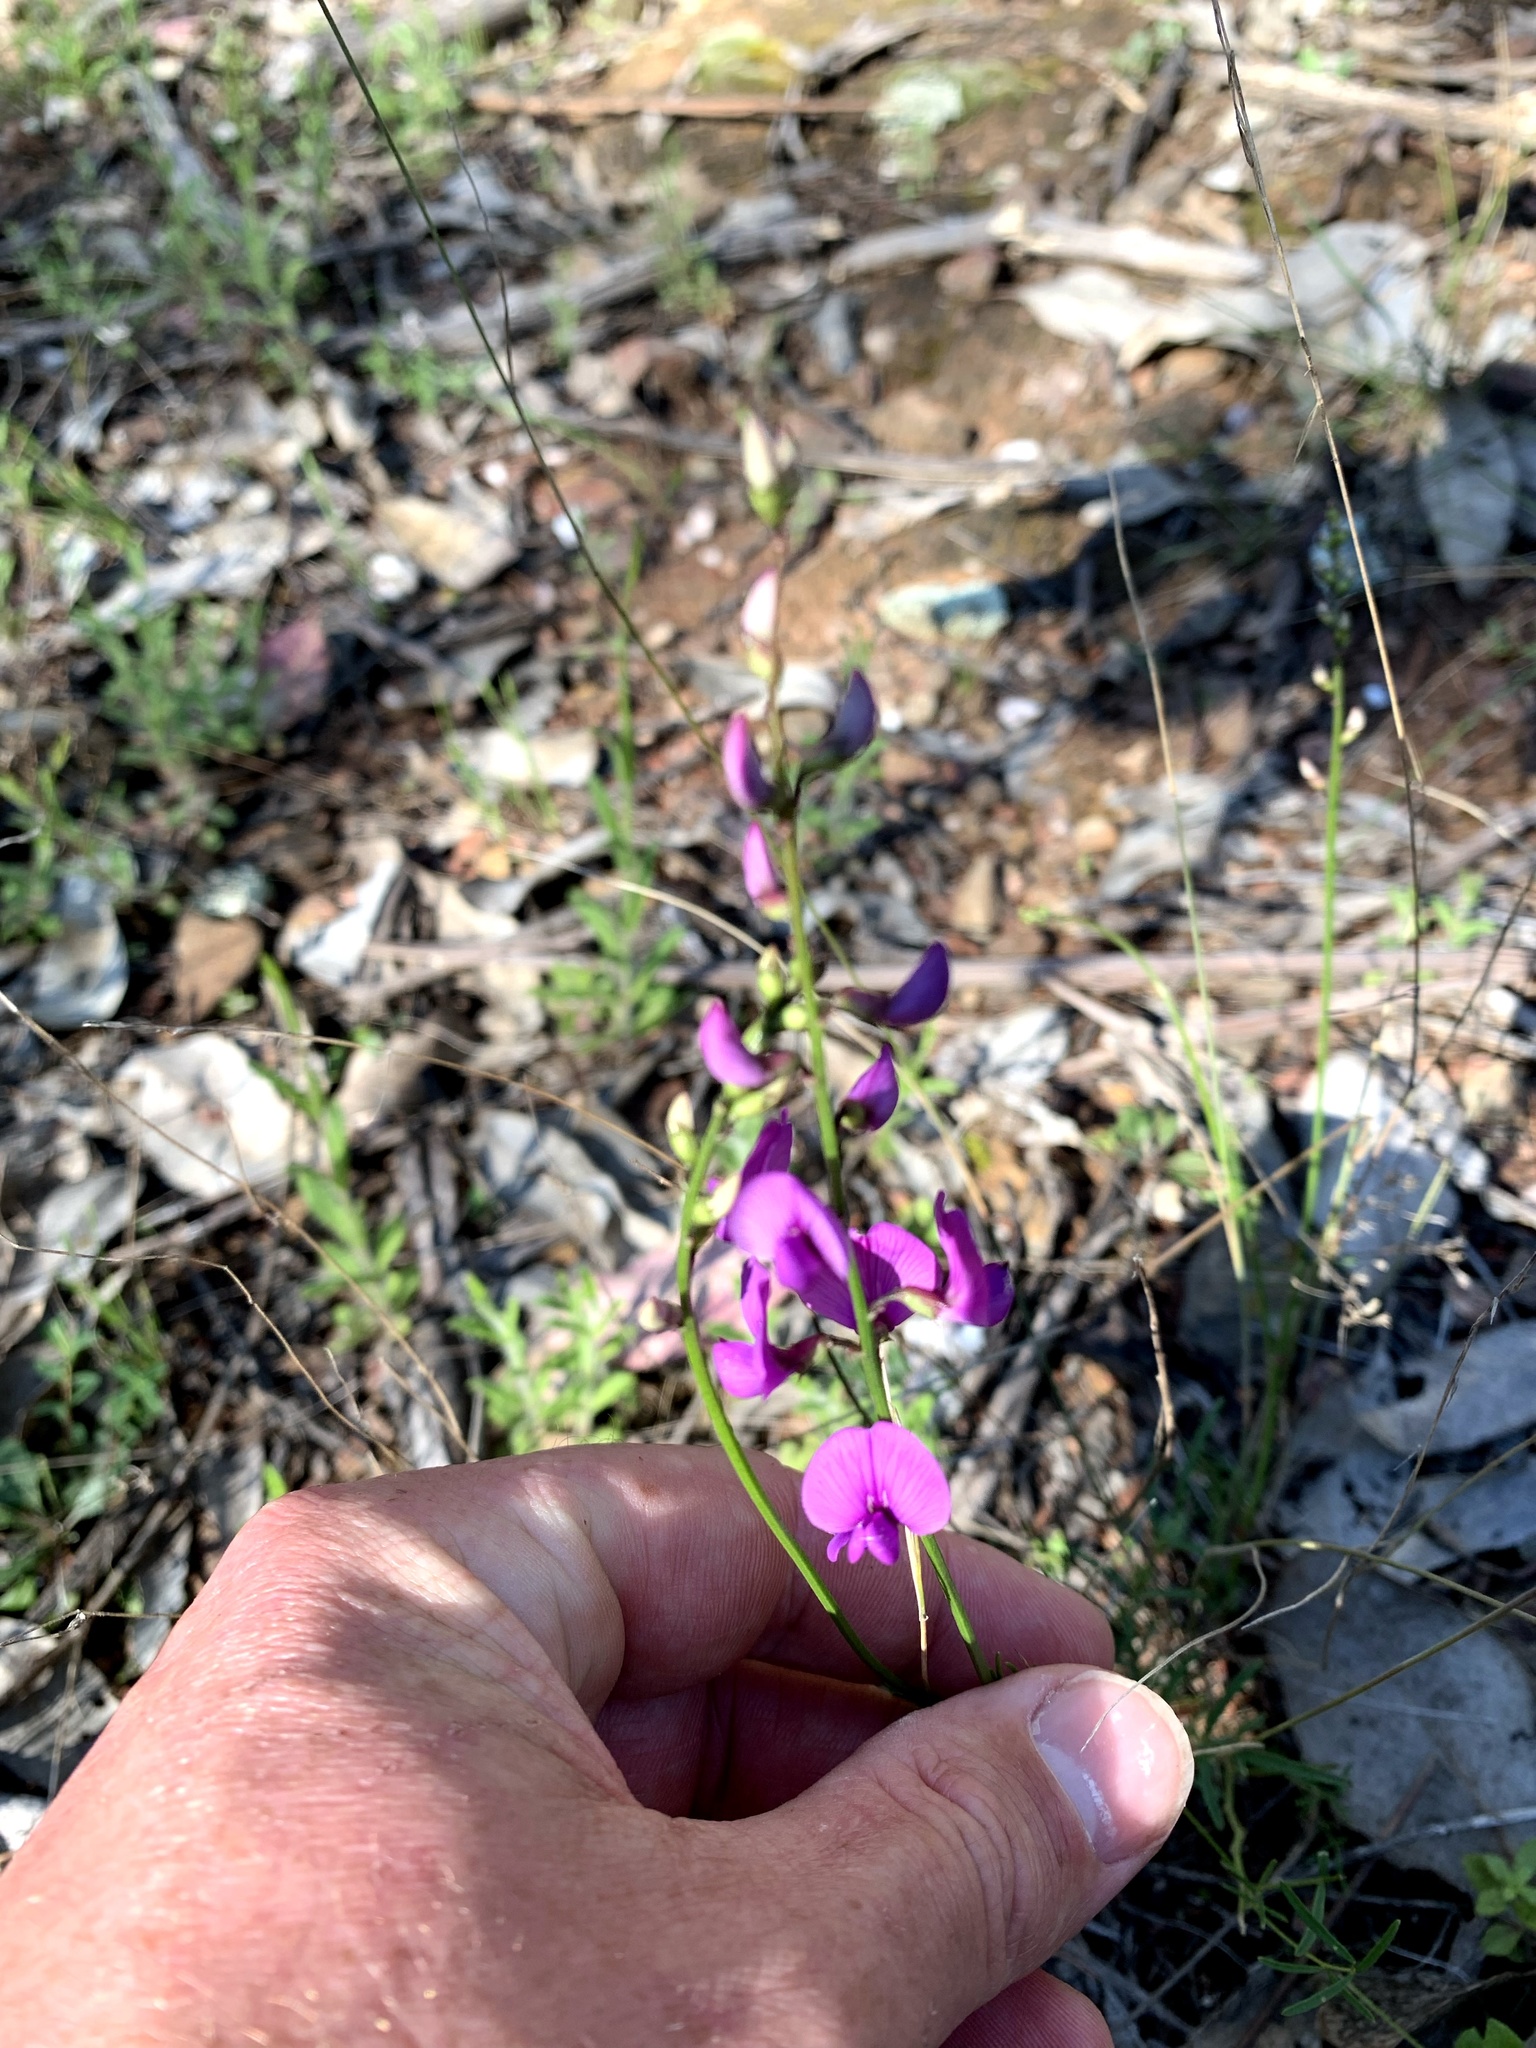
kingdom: Plantae
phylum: Tracheophyta
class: Magnoliopsida
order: Fabales
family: Fabaceae
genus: Swainsona
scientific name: Swainsona recta
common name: Mountain swainson-pea
